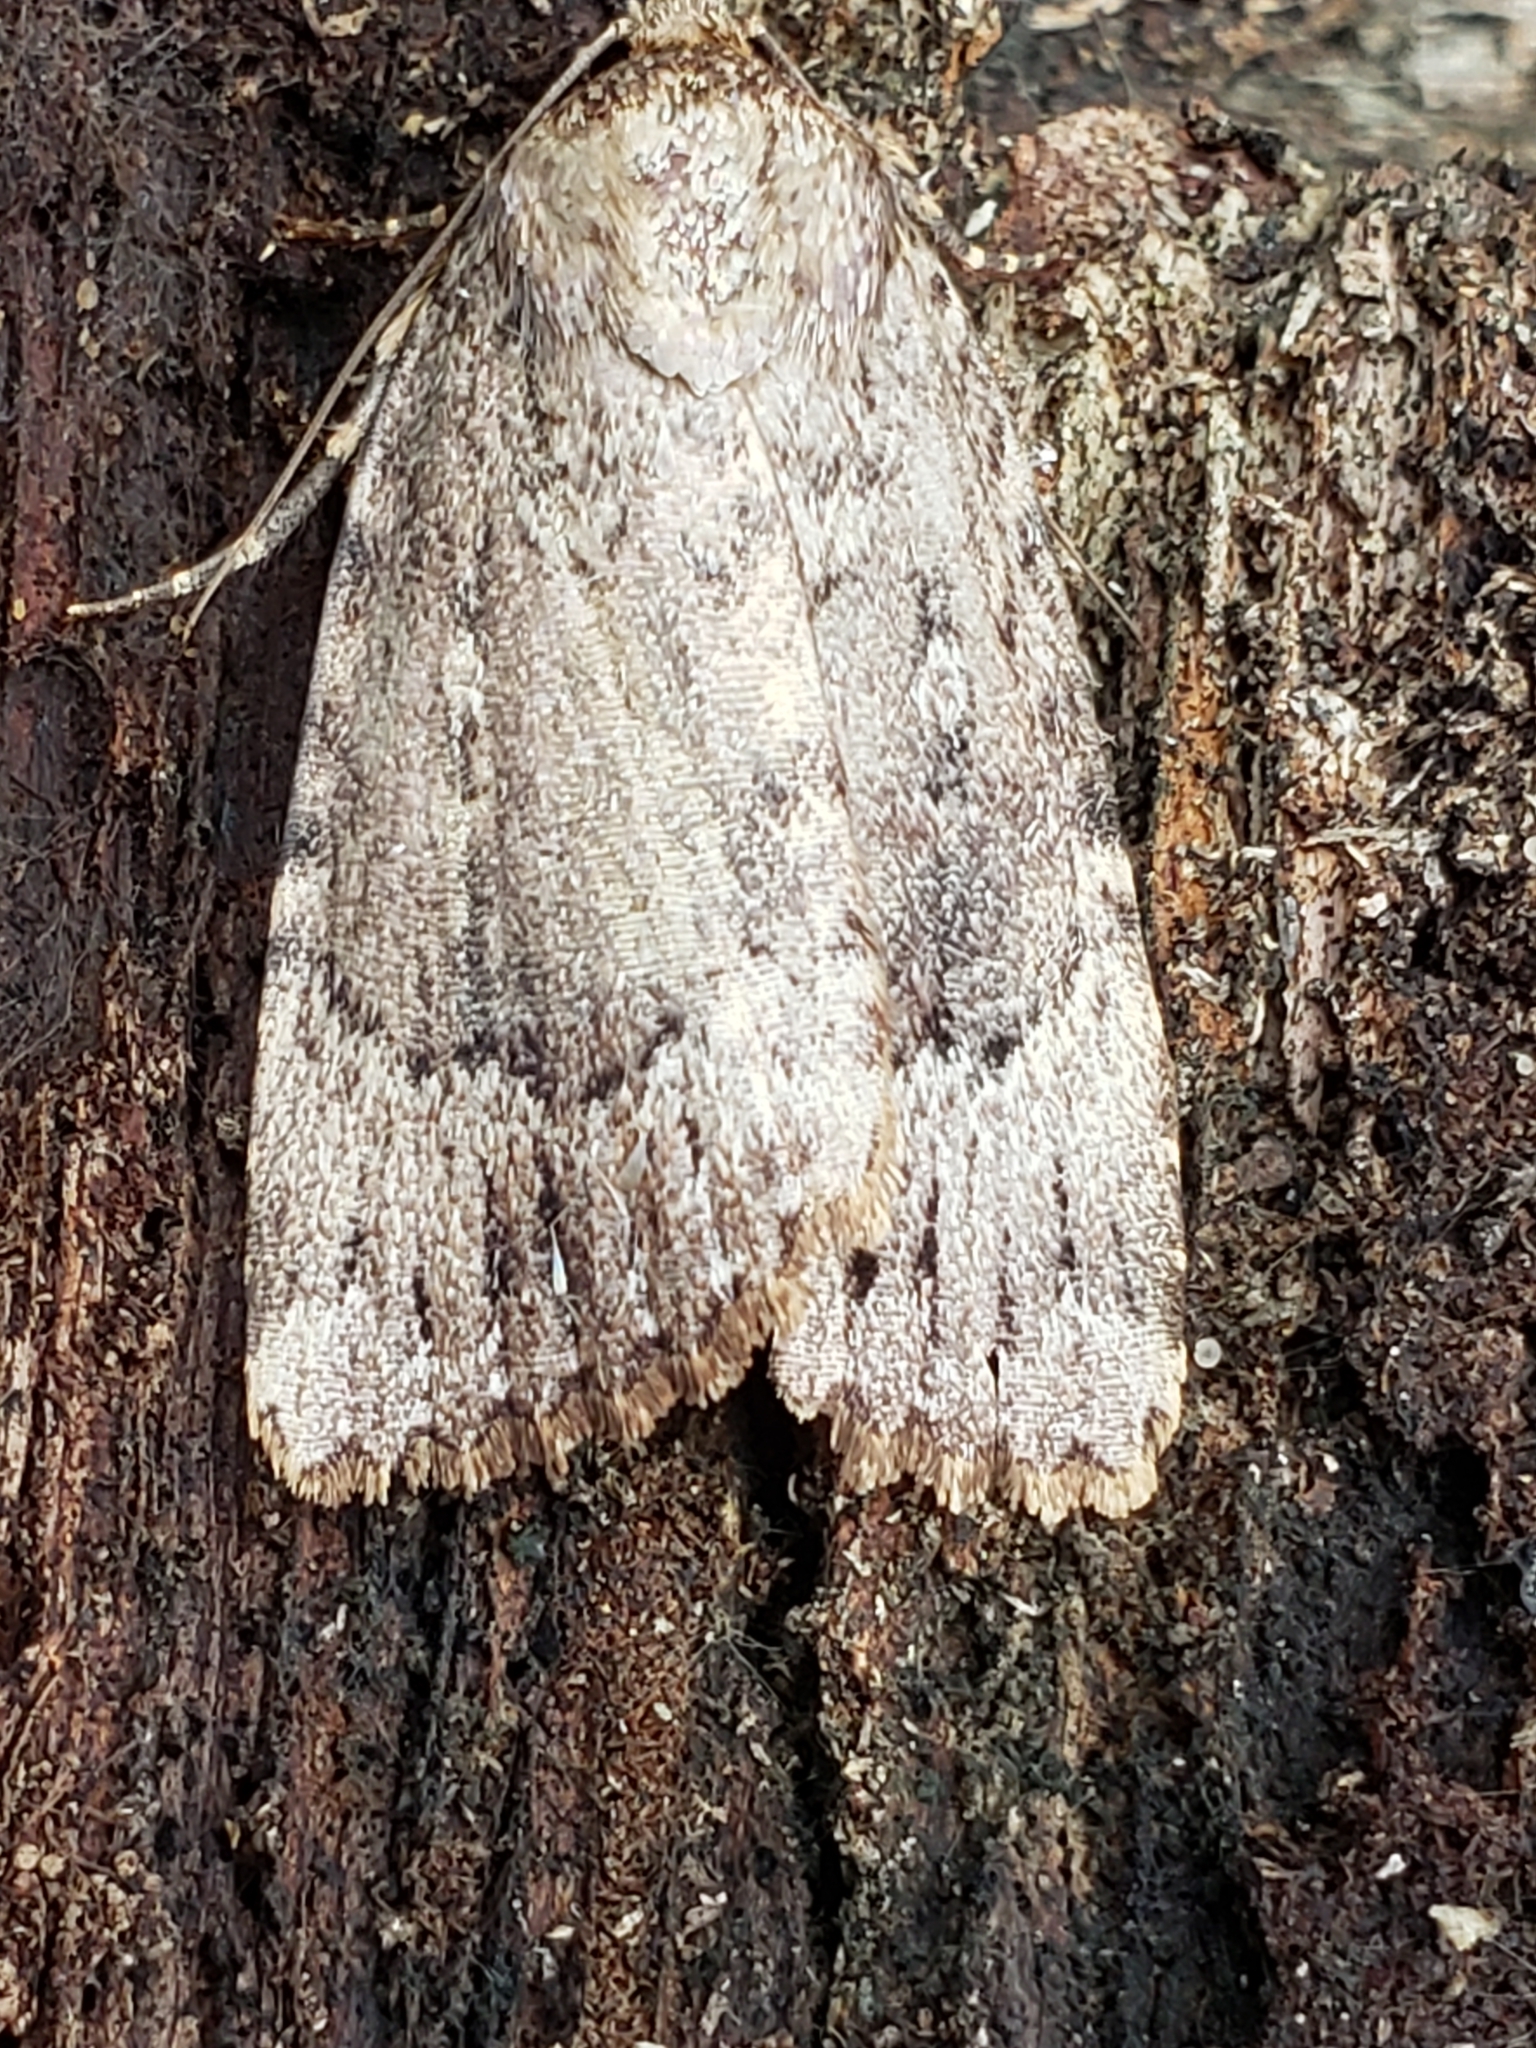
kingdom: Animalia
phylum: Arthropoda
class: Insecta
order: Lepidoptera
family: Noctuidae
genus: Amphipyra
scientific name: Amphipyra pyramidoides
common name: American copper underwing
